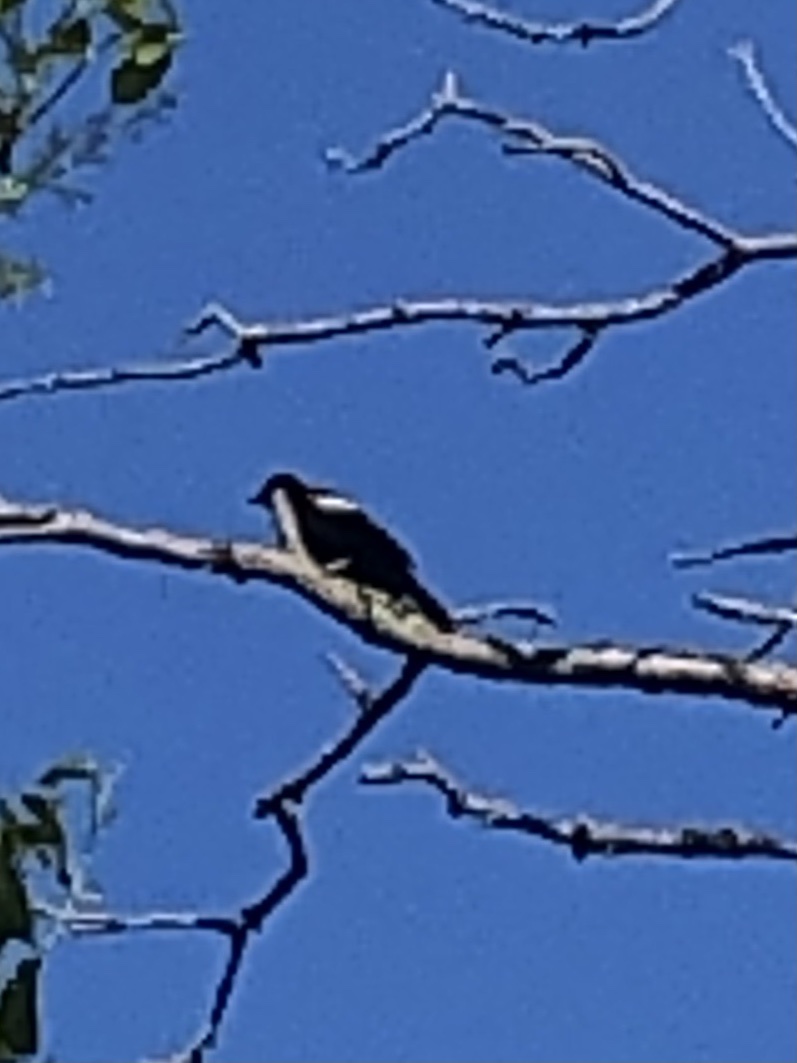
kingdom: Animalia
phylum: Chordata
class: Aves
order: Passeriformes
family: Icteridae
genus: Agelaius
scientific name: Agelaius phoeniceus
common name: Red-winged blackbird
